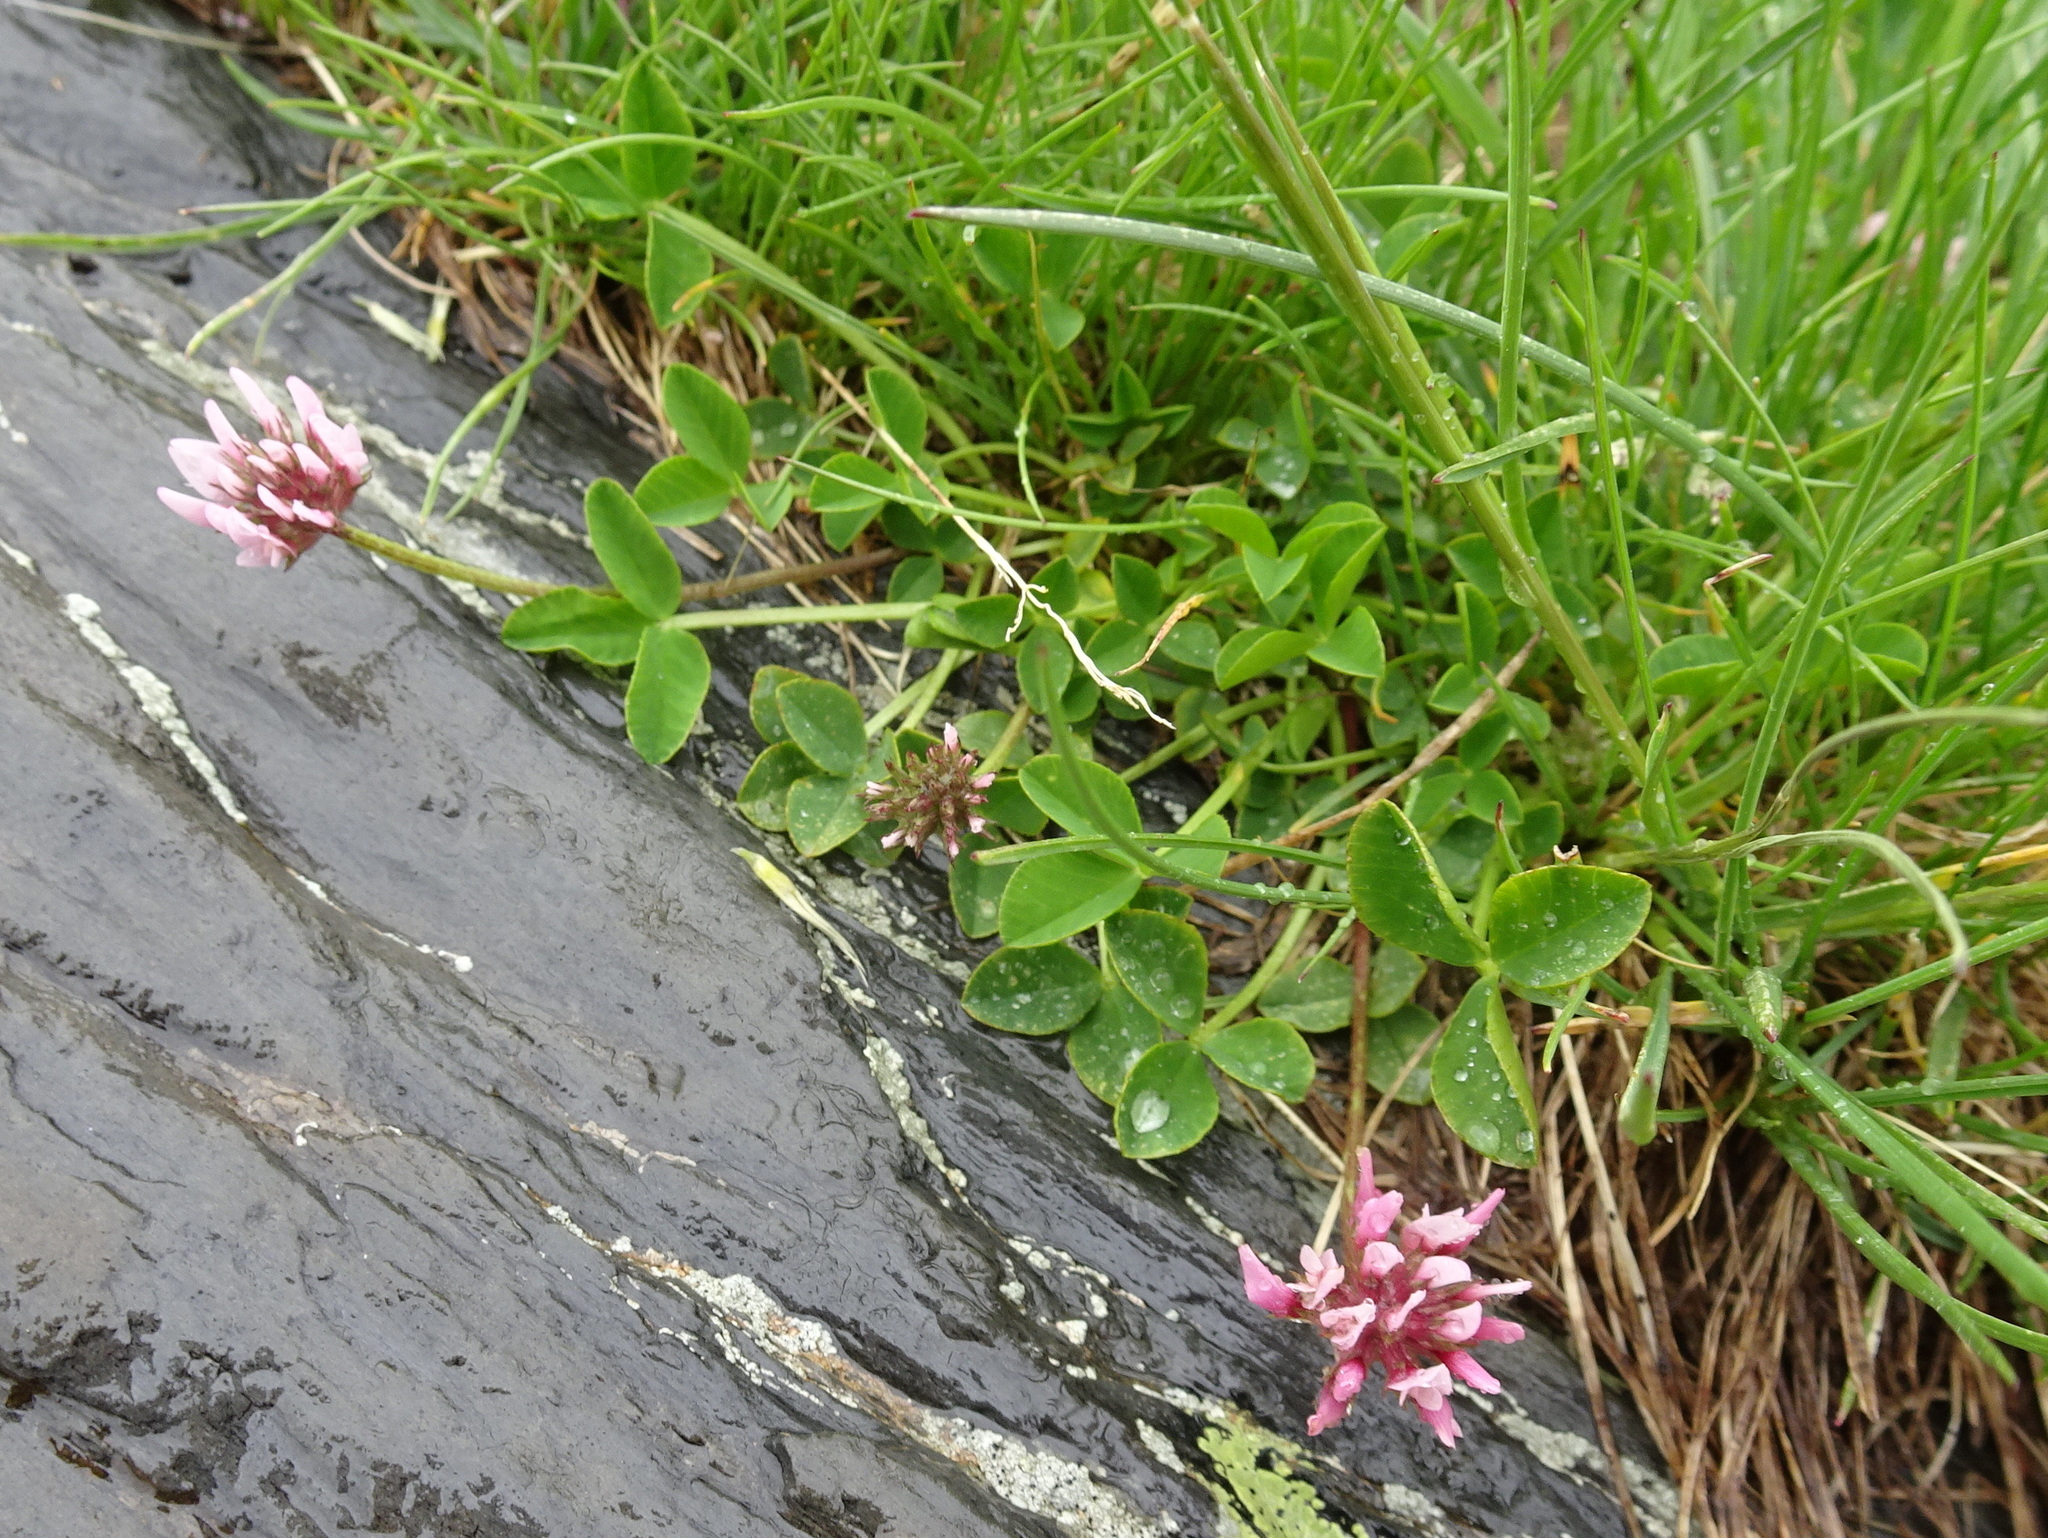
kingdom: Plantae
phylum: Tracheophyta
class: Magnoliopsida
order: Fabales
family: Fabaceae
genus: Trifolium
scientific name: Trifolium thalii
